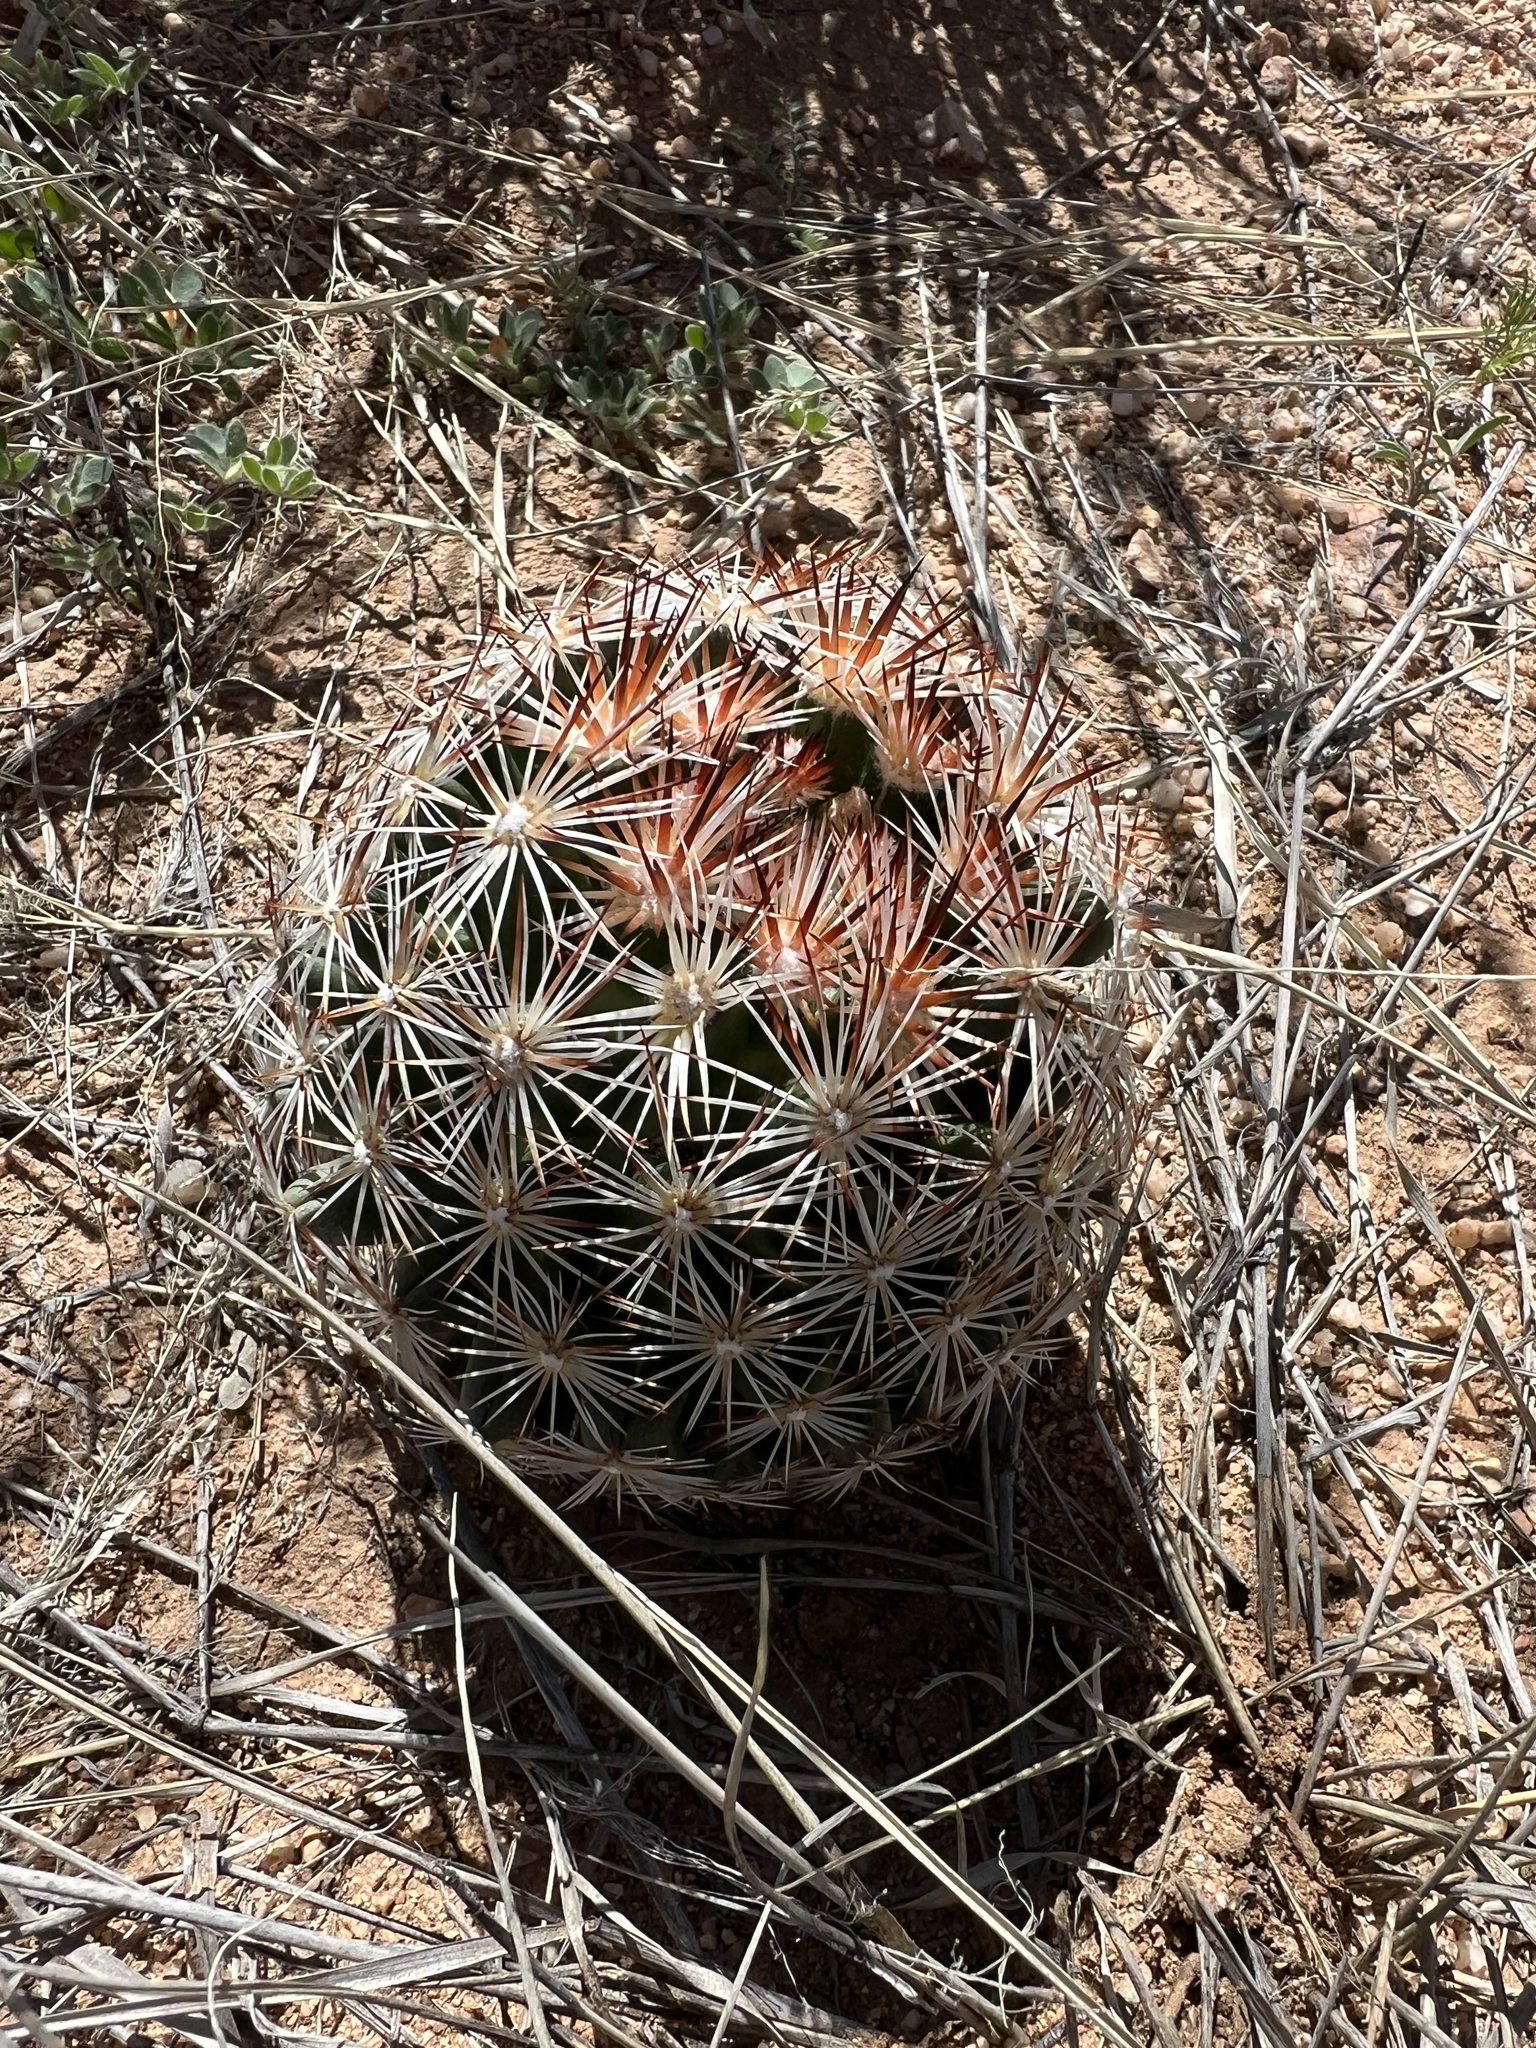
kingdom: Plantae
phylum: Tracheophyta
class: Magnoliopsida
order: Caryophyllales
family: Cactaceae
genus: Pelecyphora
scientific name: Pelecyphora vivipara
